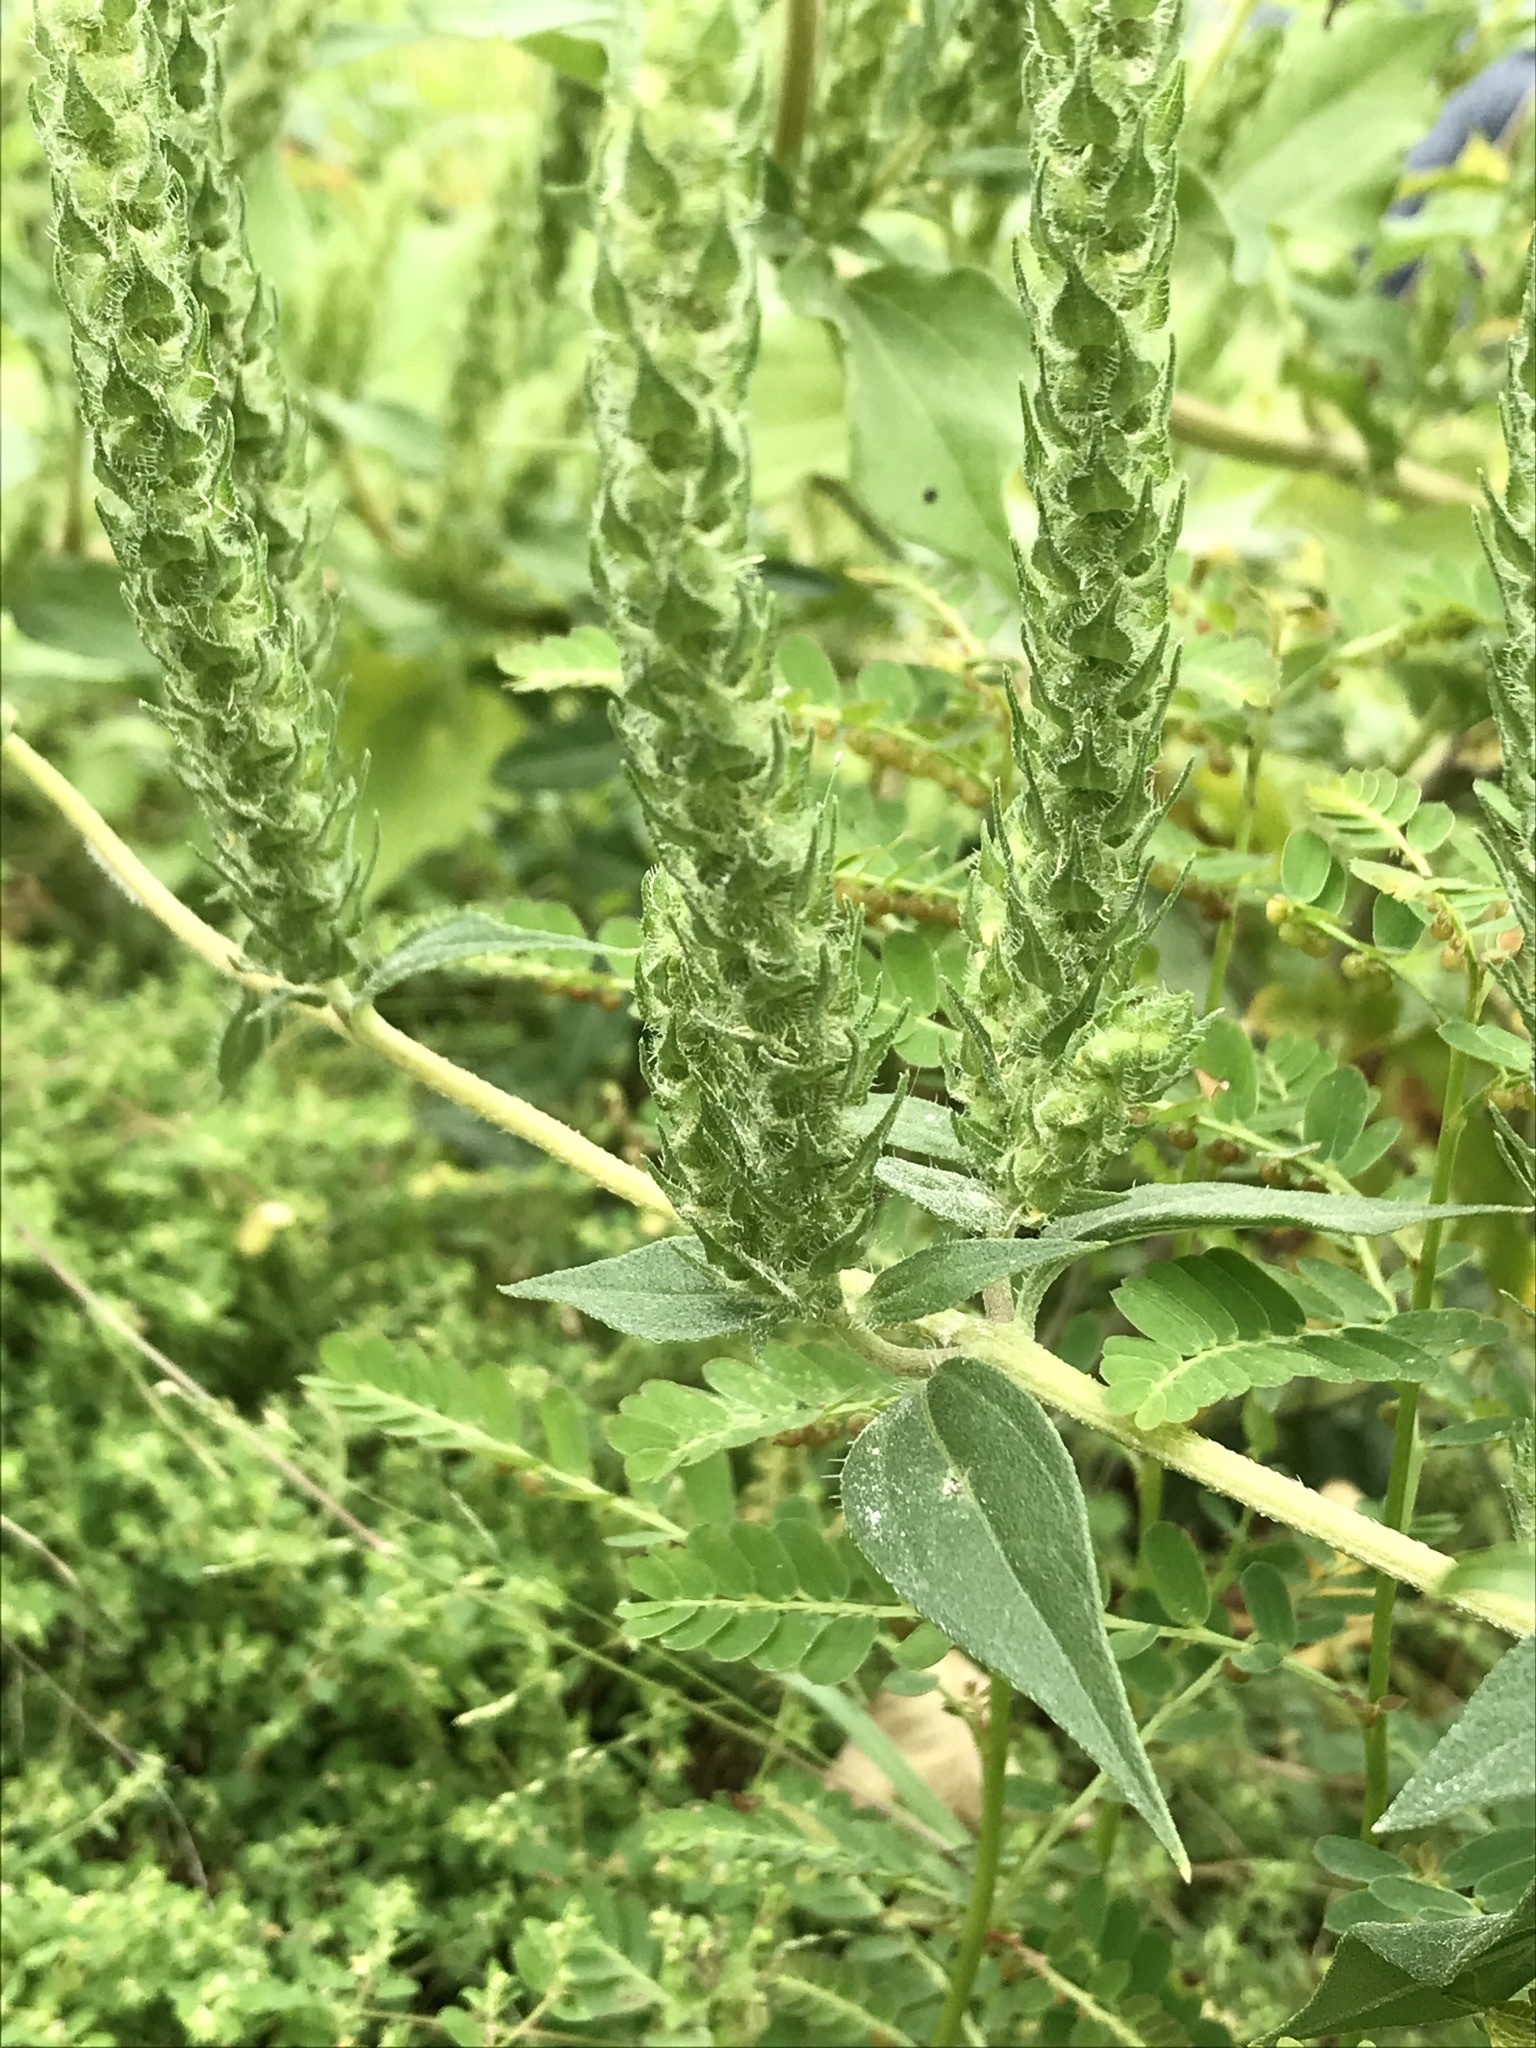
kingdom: Plantae
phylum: Tracheophyta
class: Magnoliopsida
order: Asterales
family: Asteraceae
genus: Iva
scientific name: Iva annua
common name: Marsh-elder
